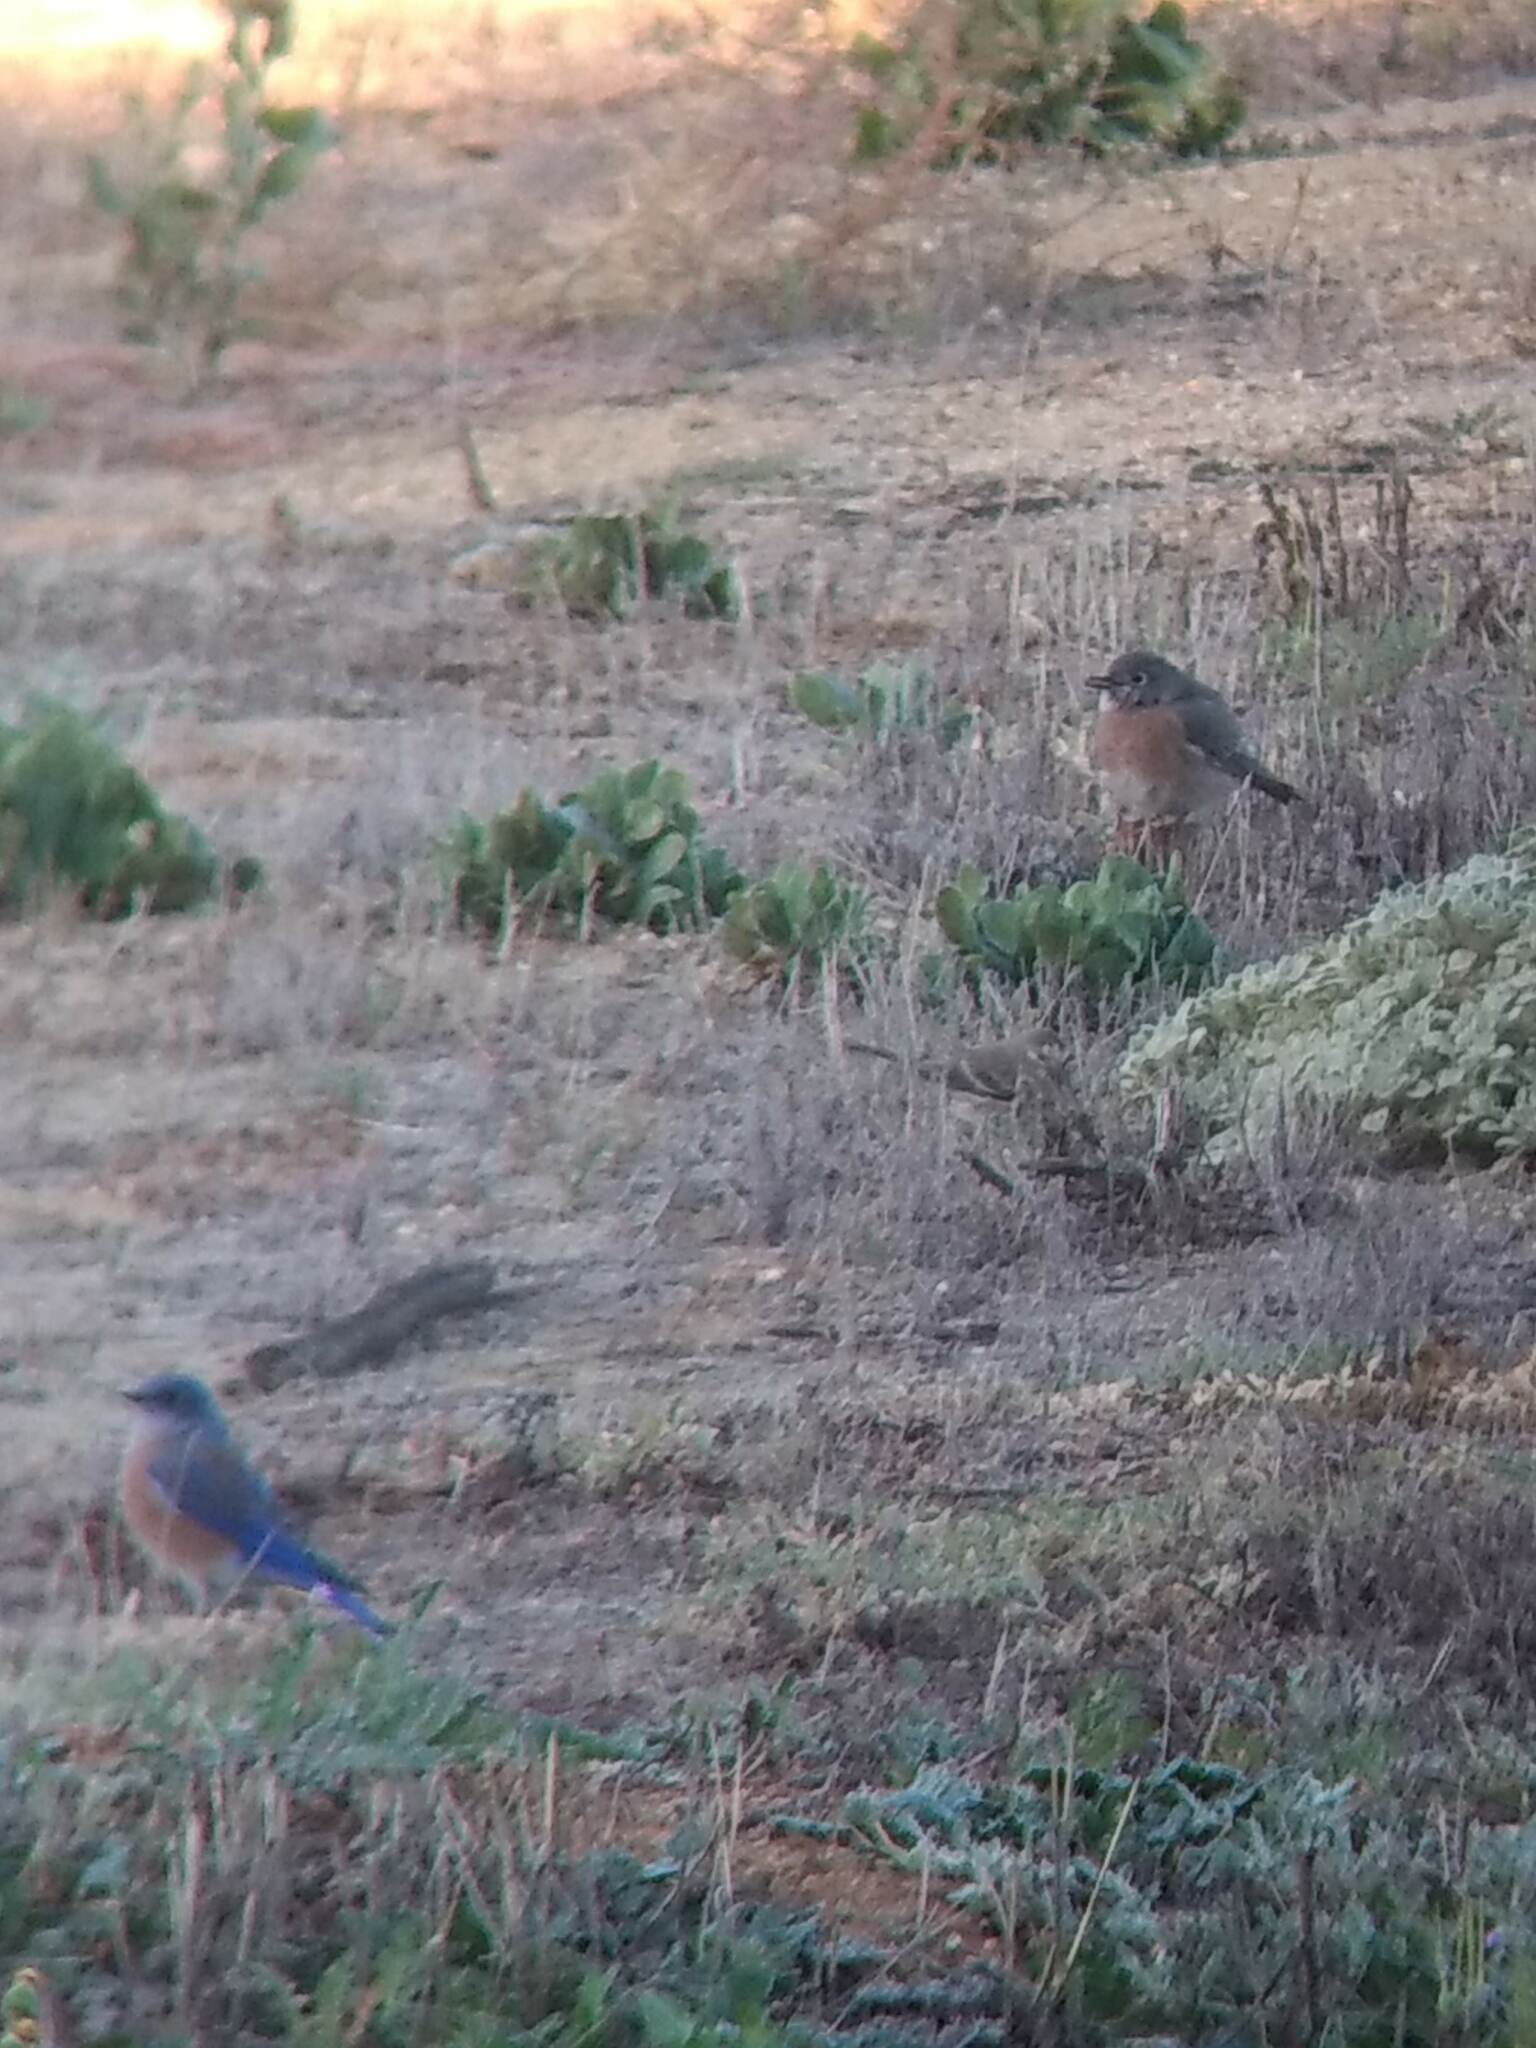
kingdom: Animalia
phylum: Chordata
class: Aves
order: Passeriformes
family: Turdidae
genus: Sialia
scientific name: Sialia mexicana
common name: Western bluebird
